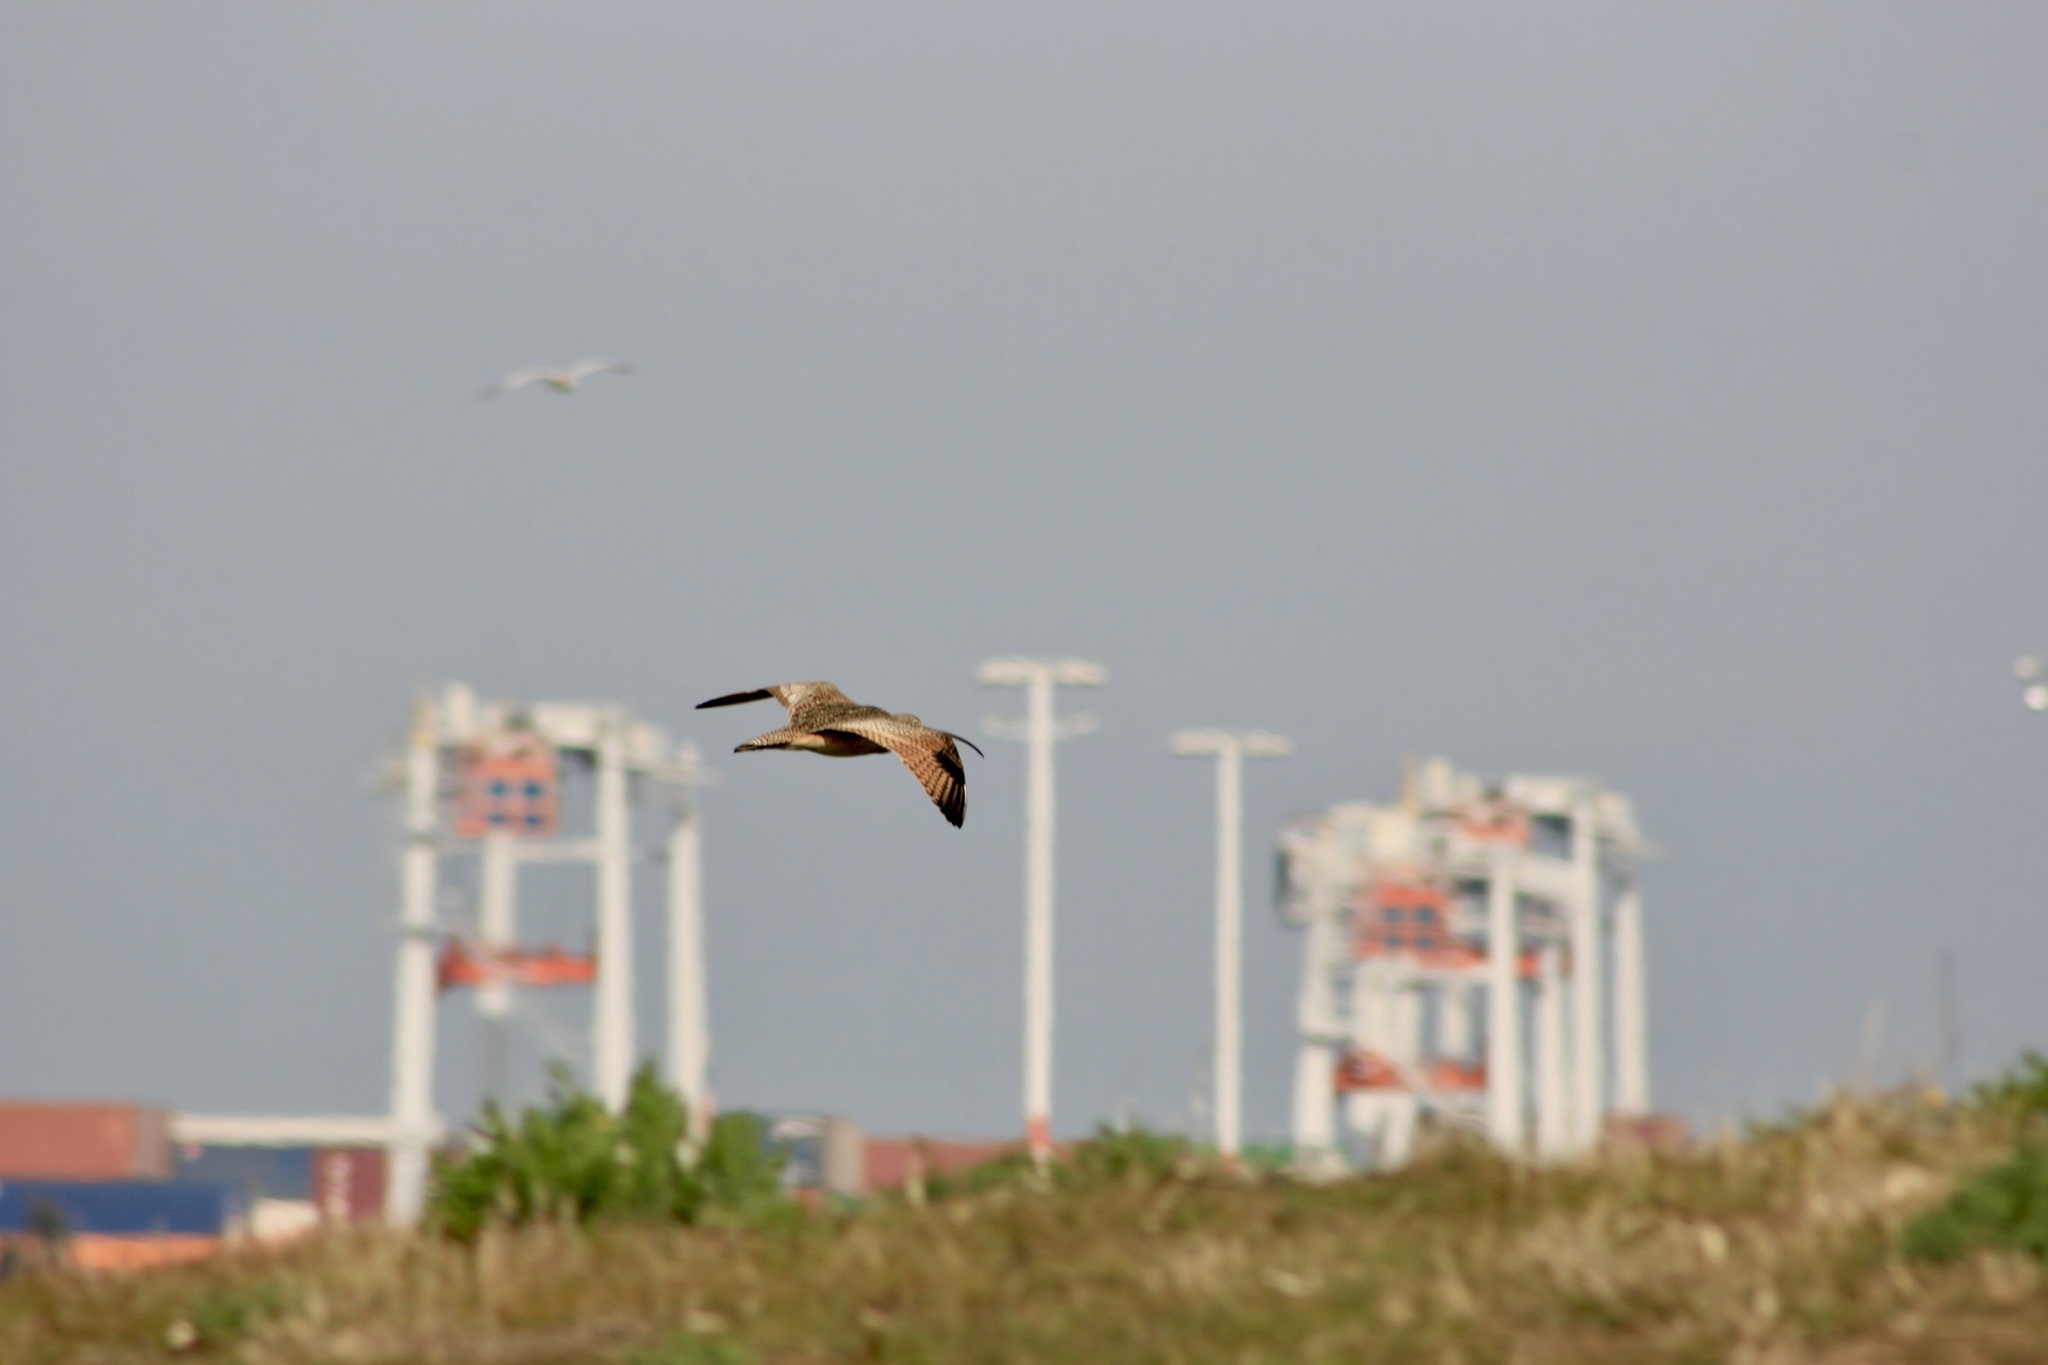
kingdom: Animalia
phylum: Chordata
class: Aves
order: Charadriiformes
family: Scolopacidae
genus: Numenius
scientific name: Numenius americanus
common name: Long-billed curlew
